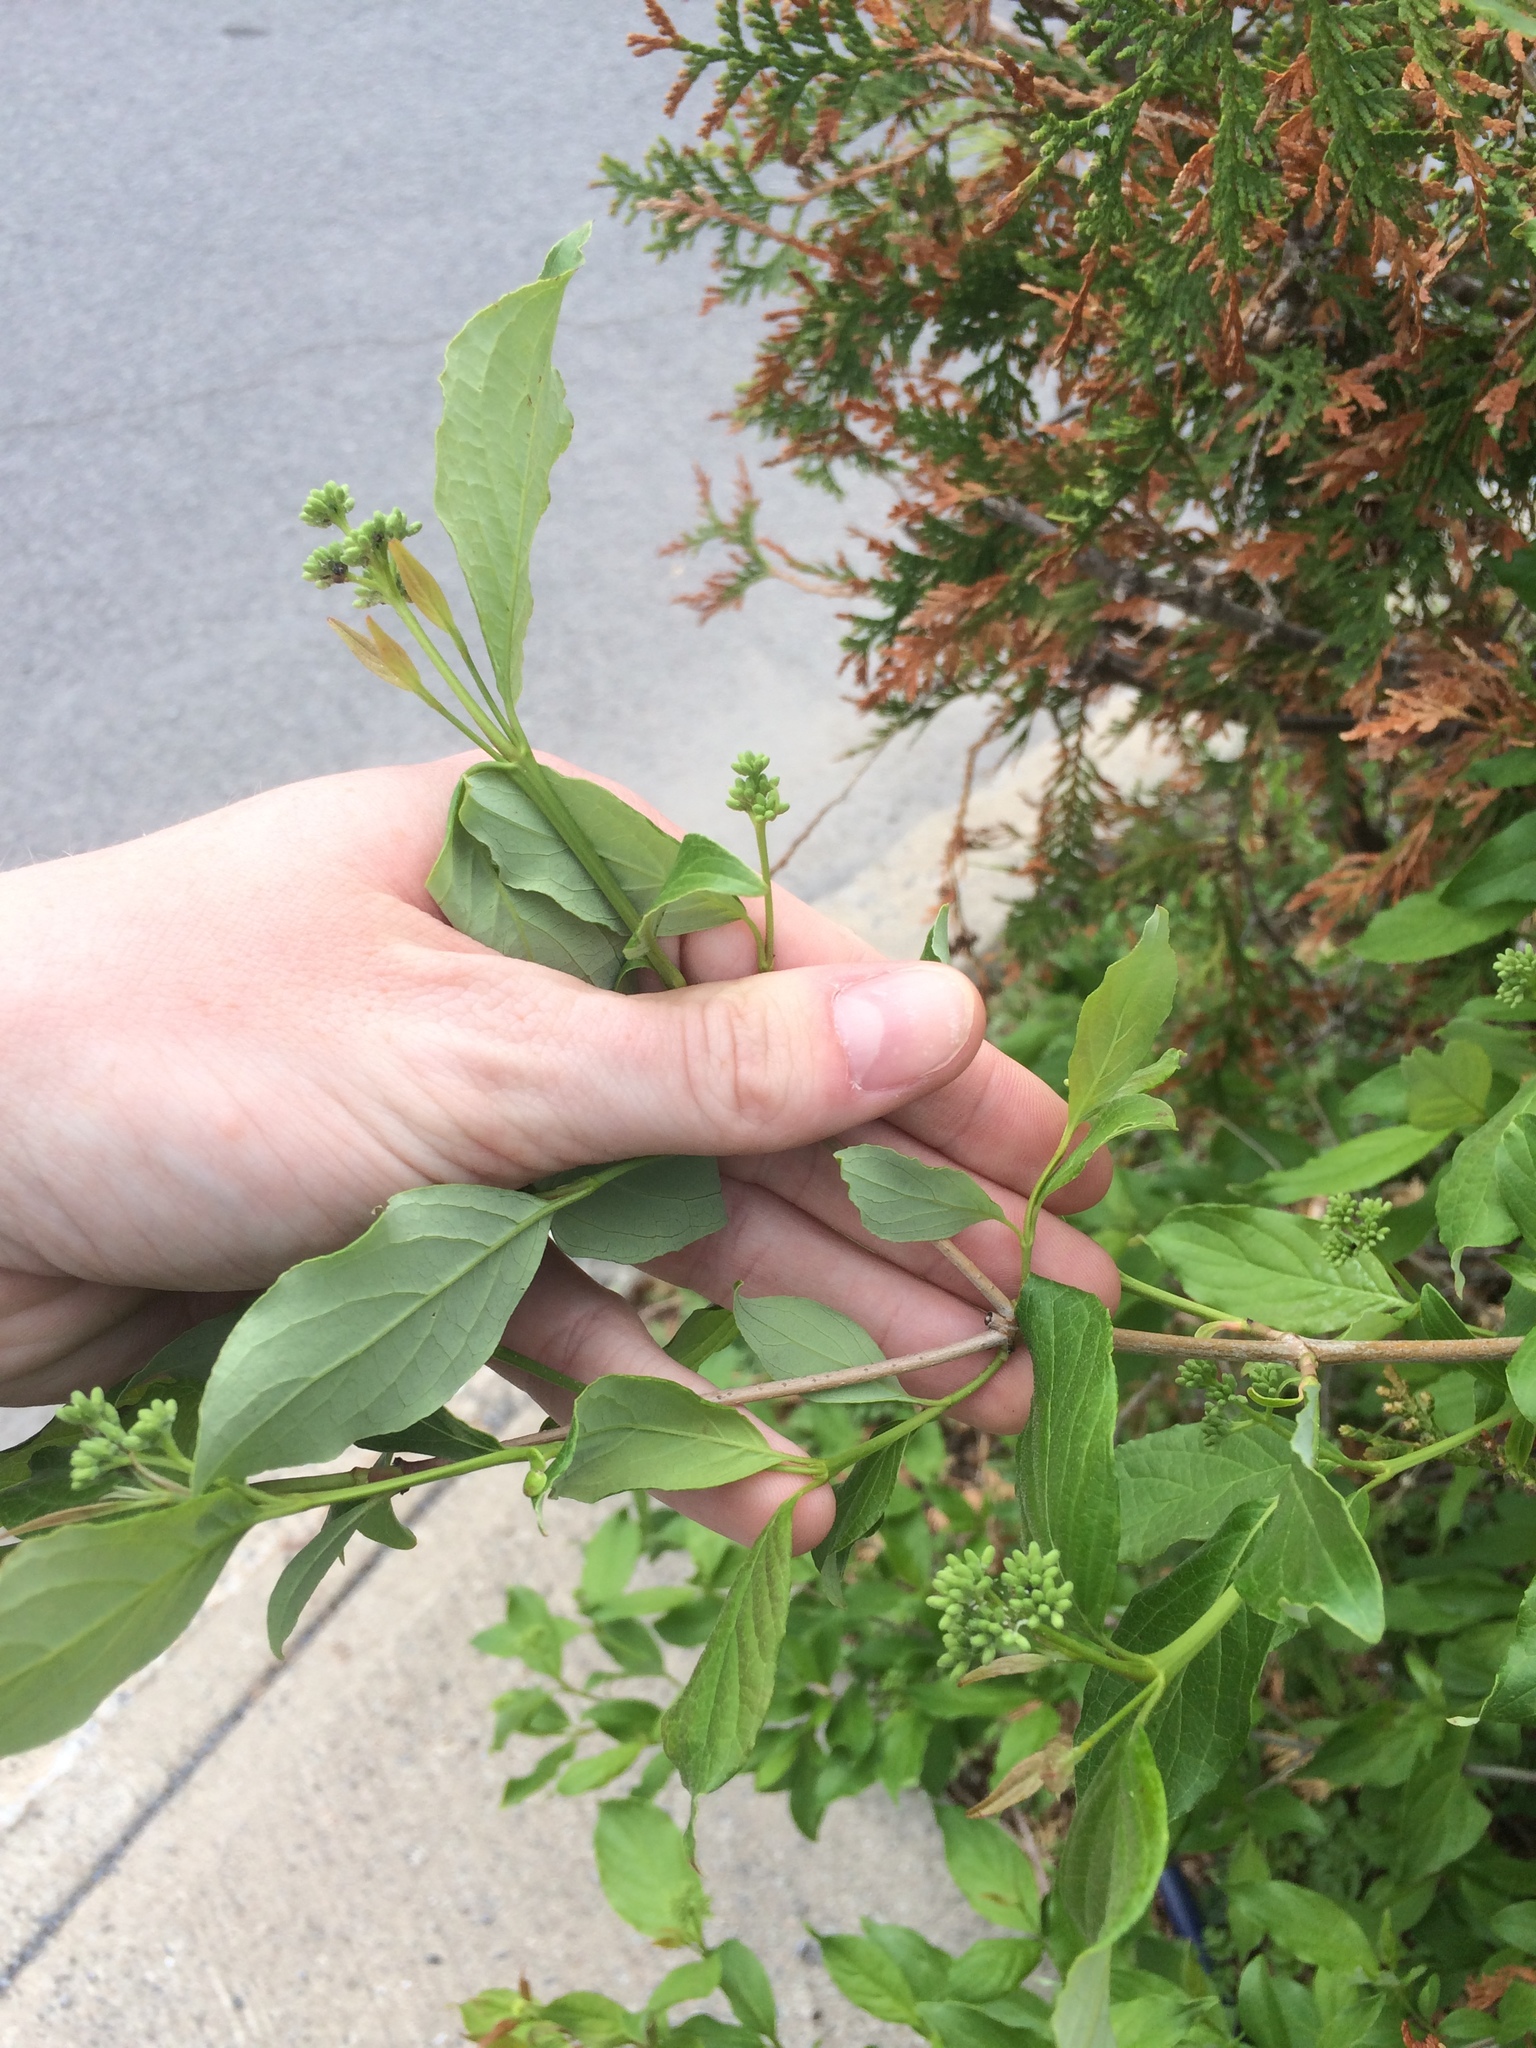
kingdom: Plantae
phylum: Tracheophyta
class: Magnoliopsida
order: Cornales
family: Cornaceae
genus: Cornus
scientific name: Cornus racemosa
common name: Panicled dogwood
